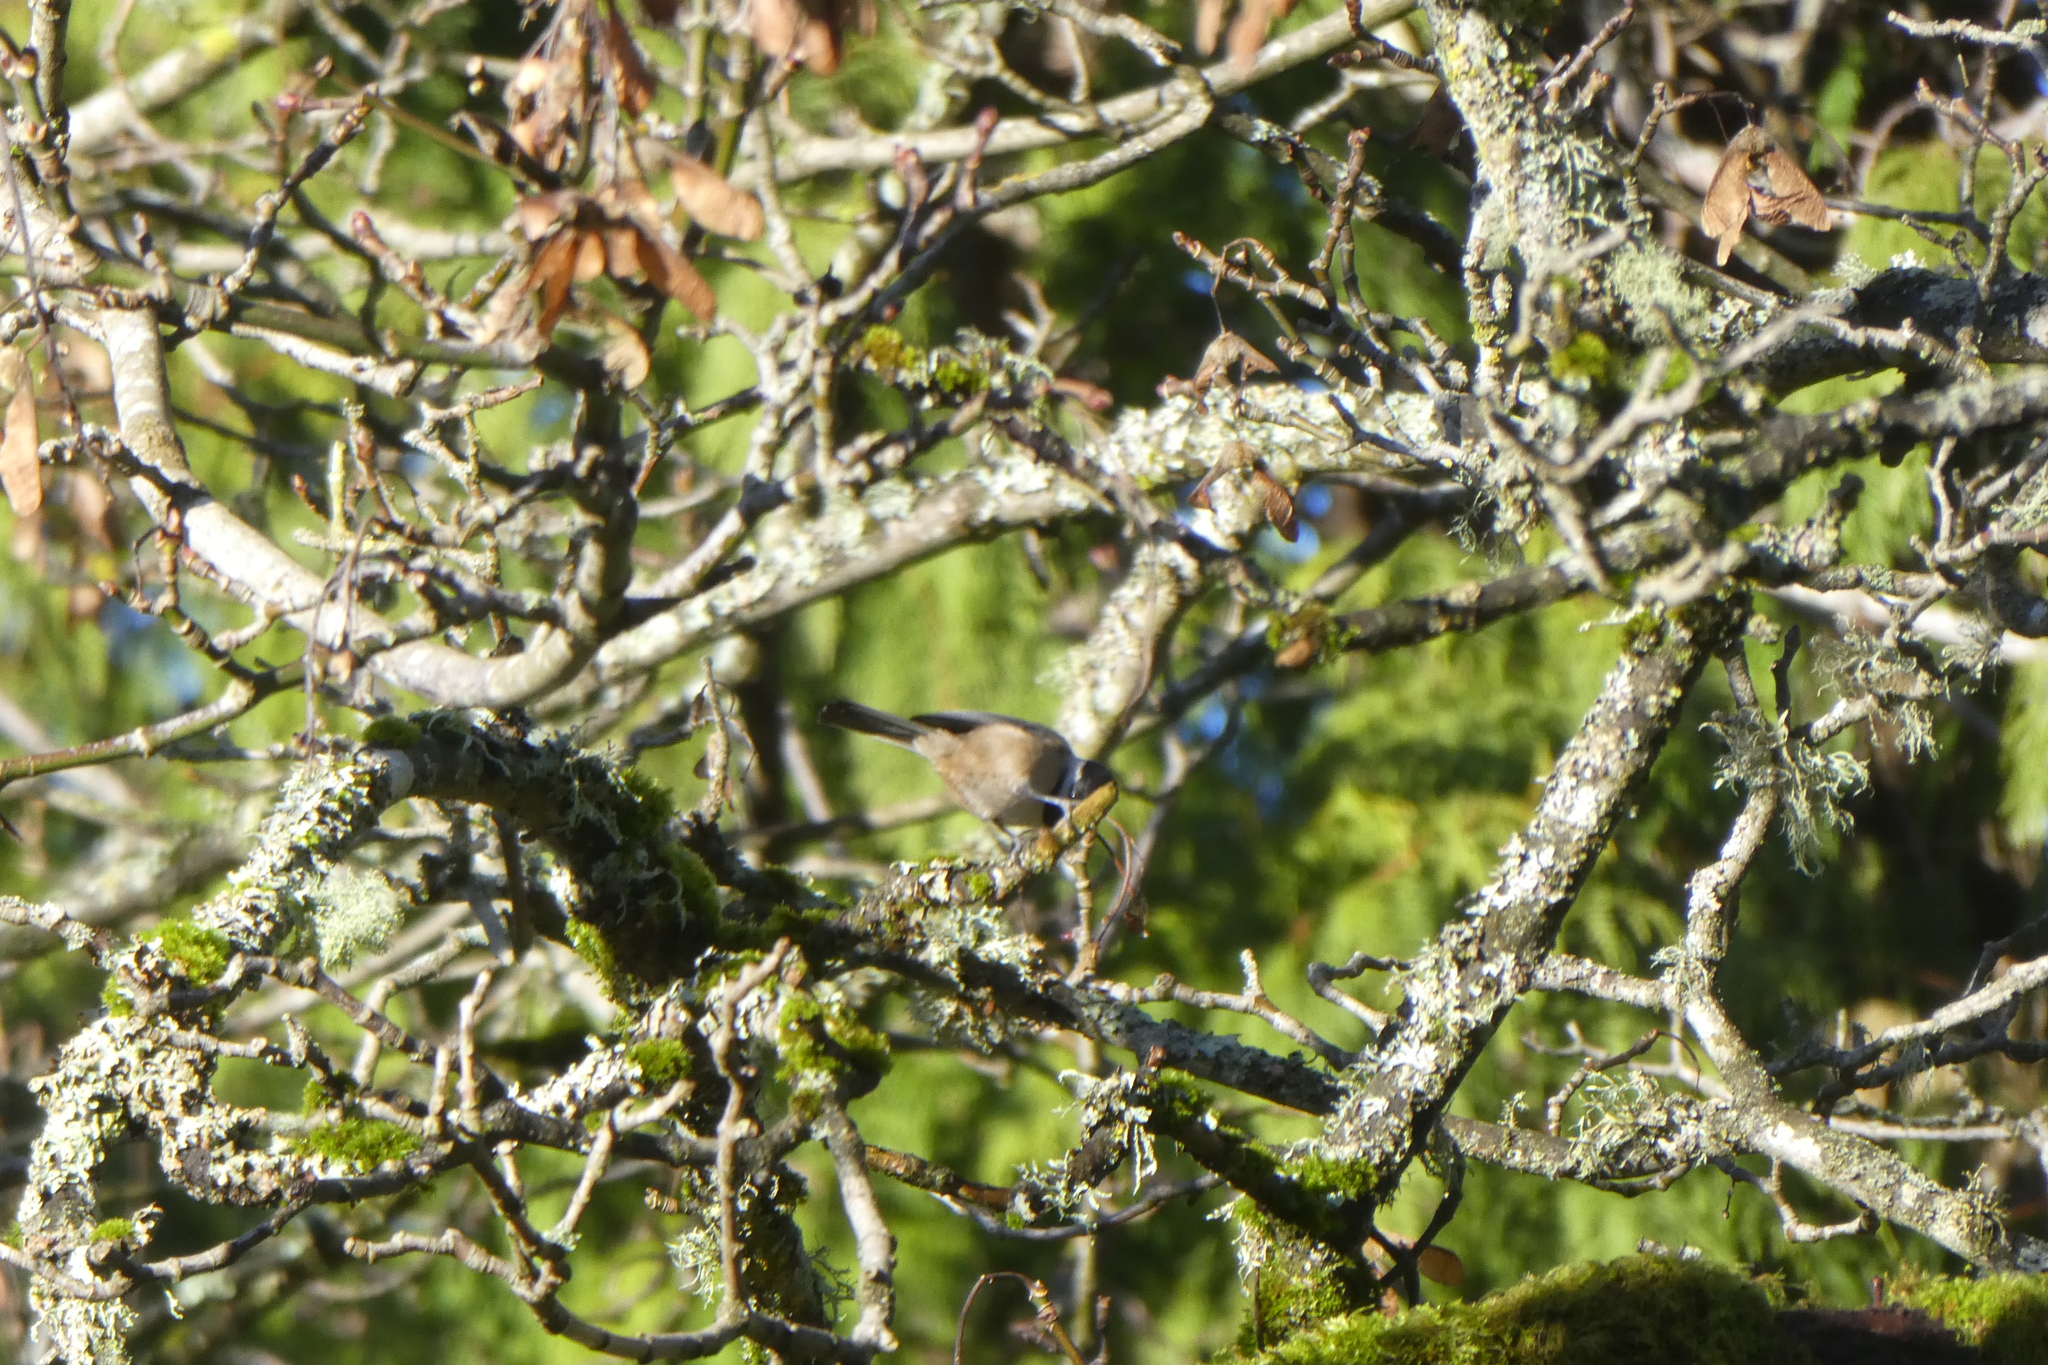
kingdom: Animalia
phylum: Chordata
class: Aves
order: Passeriformes
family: Paridae
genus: Poecile
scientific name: Poecile atricapillus
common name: Black-capped chickadee
